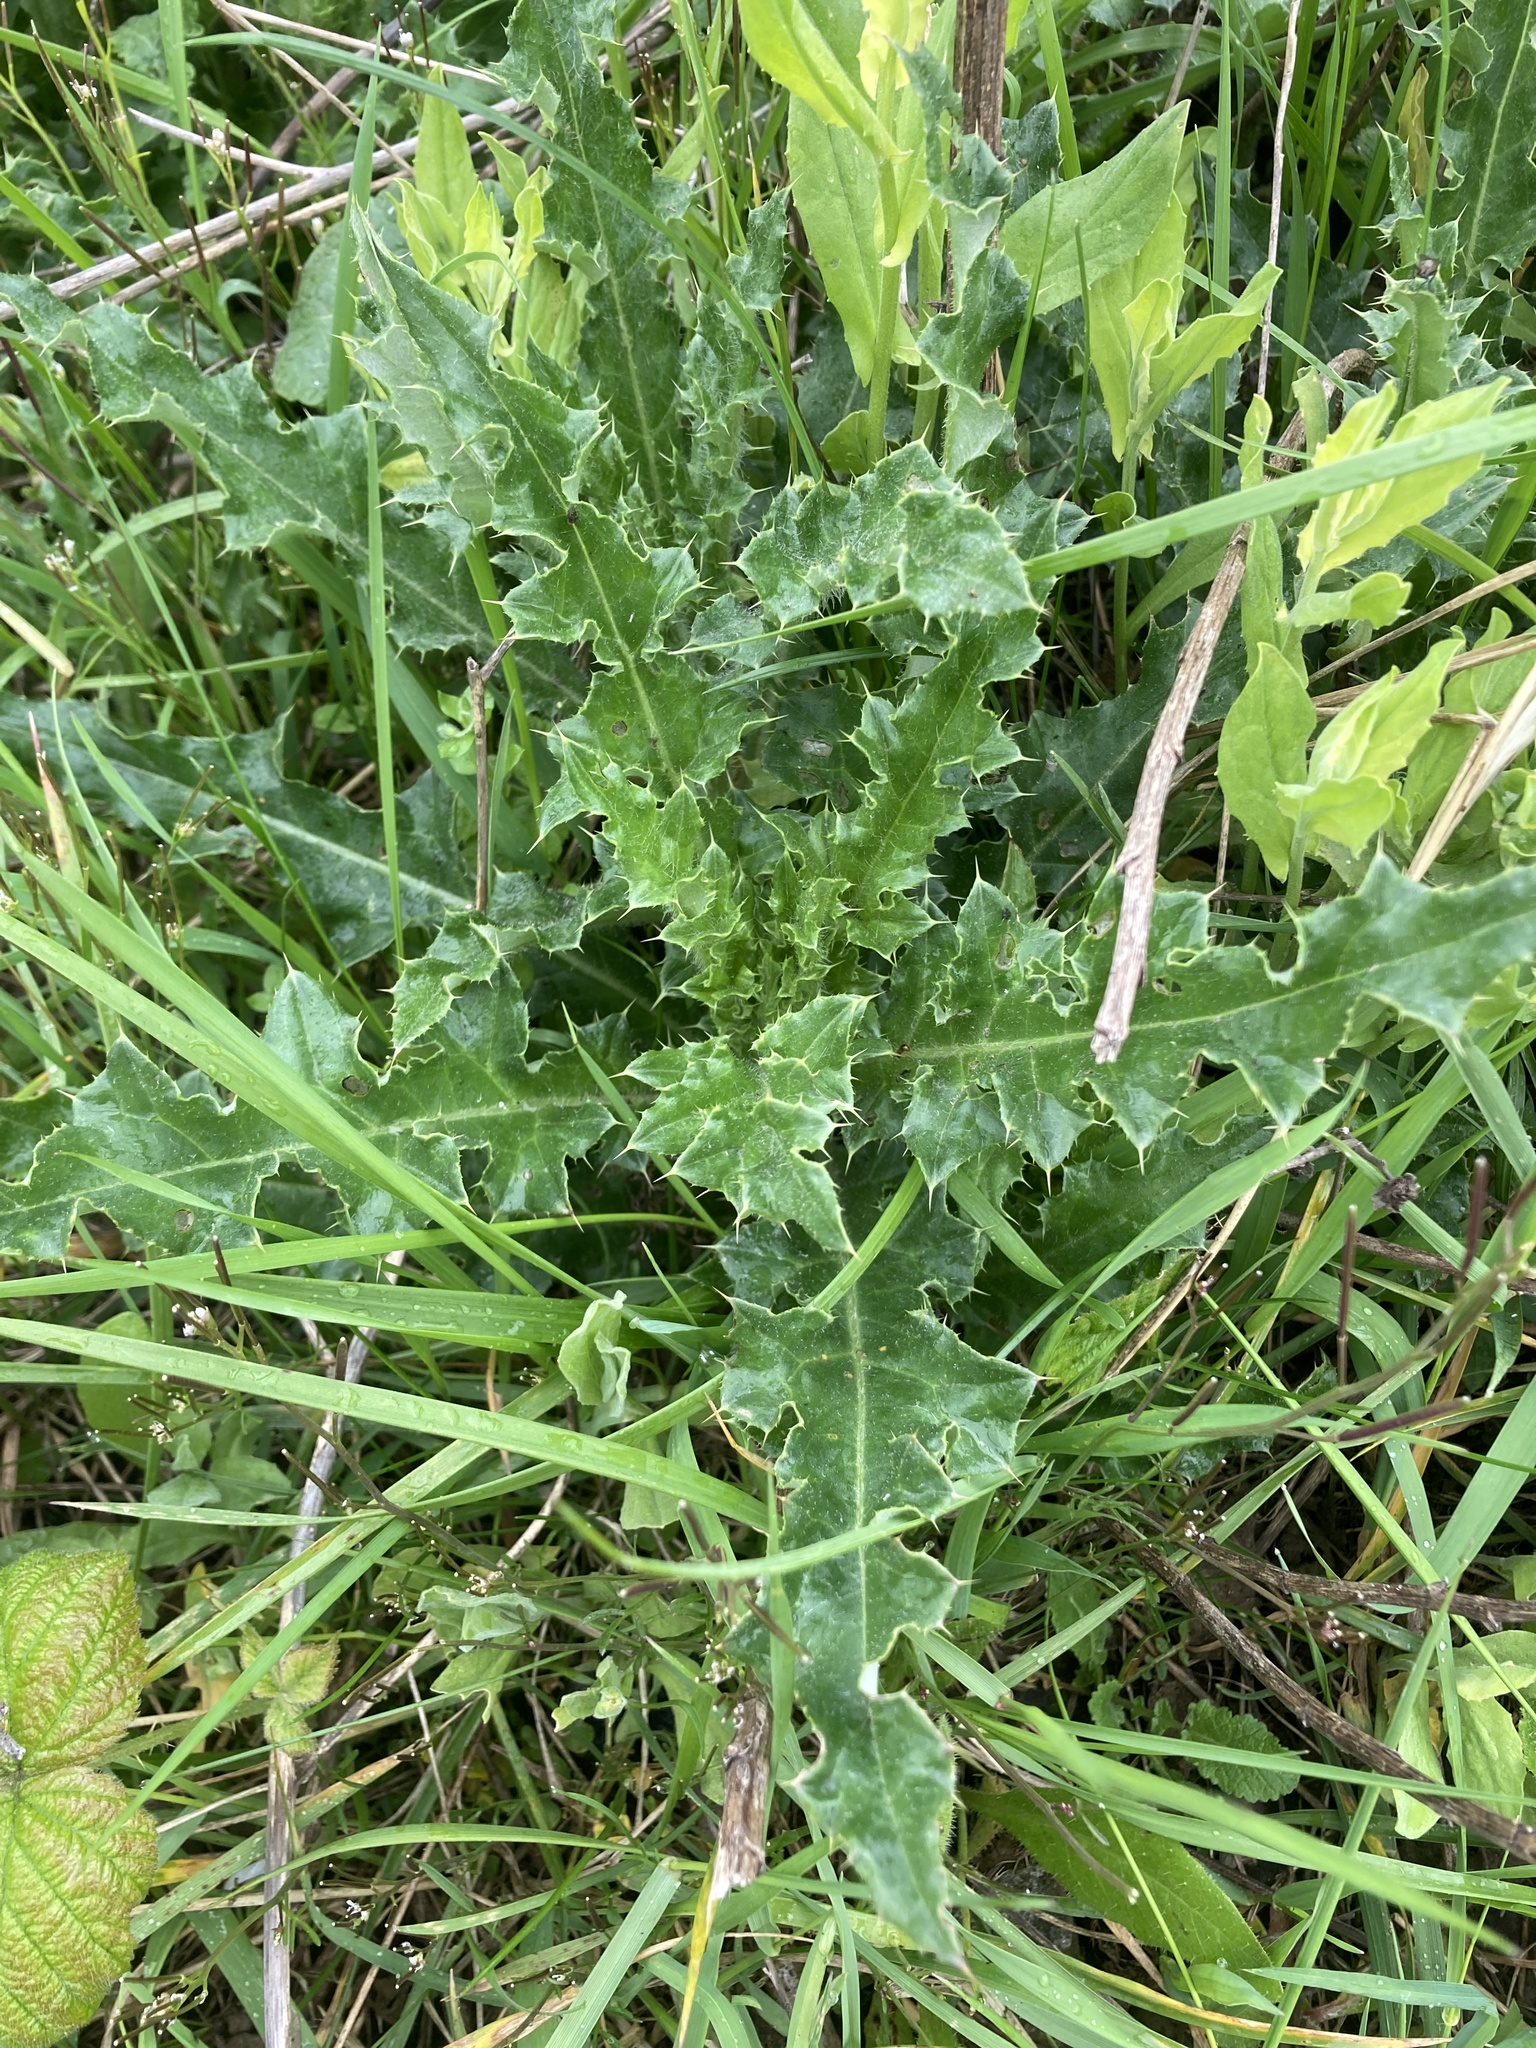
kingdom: Plantae
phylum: Tracheophyta
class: Magnoliopsida
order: Asterales
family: Asteraceae
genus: Cirsium
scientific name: Cirsium arvense
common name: Creeping thistle
